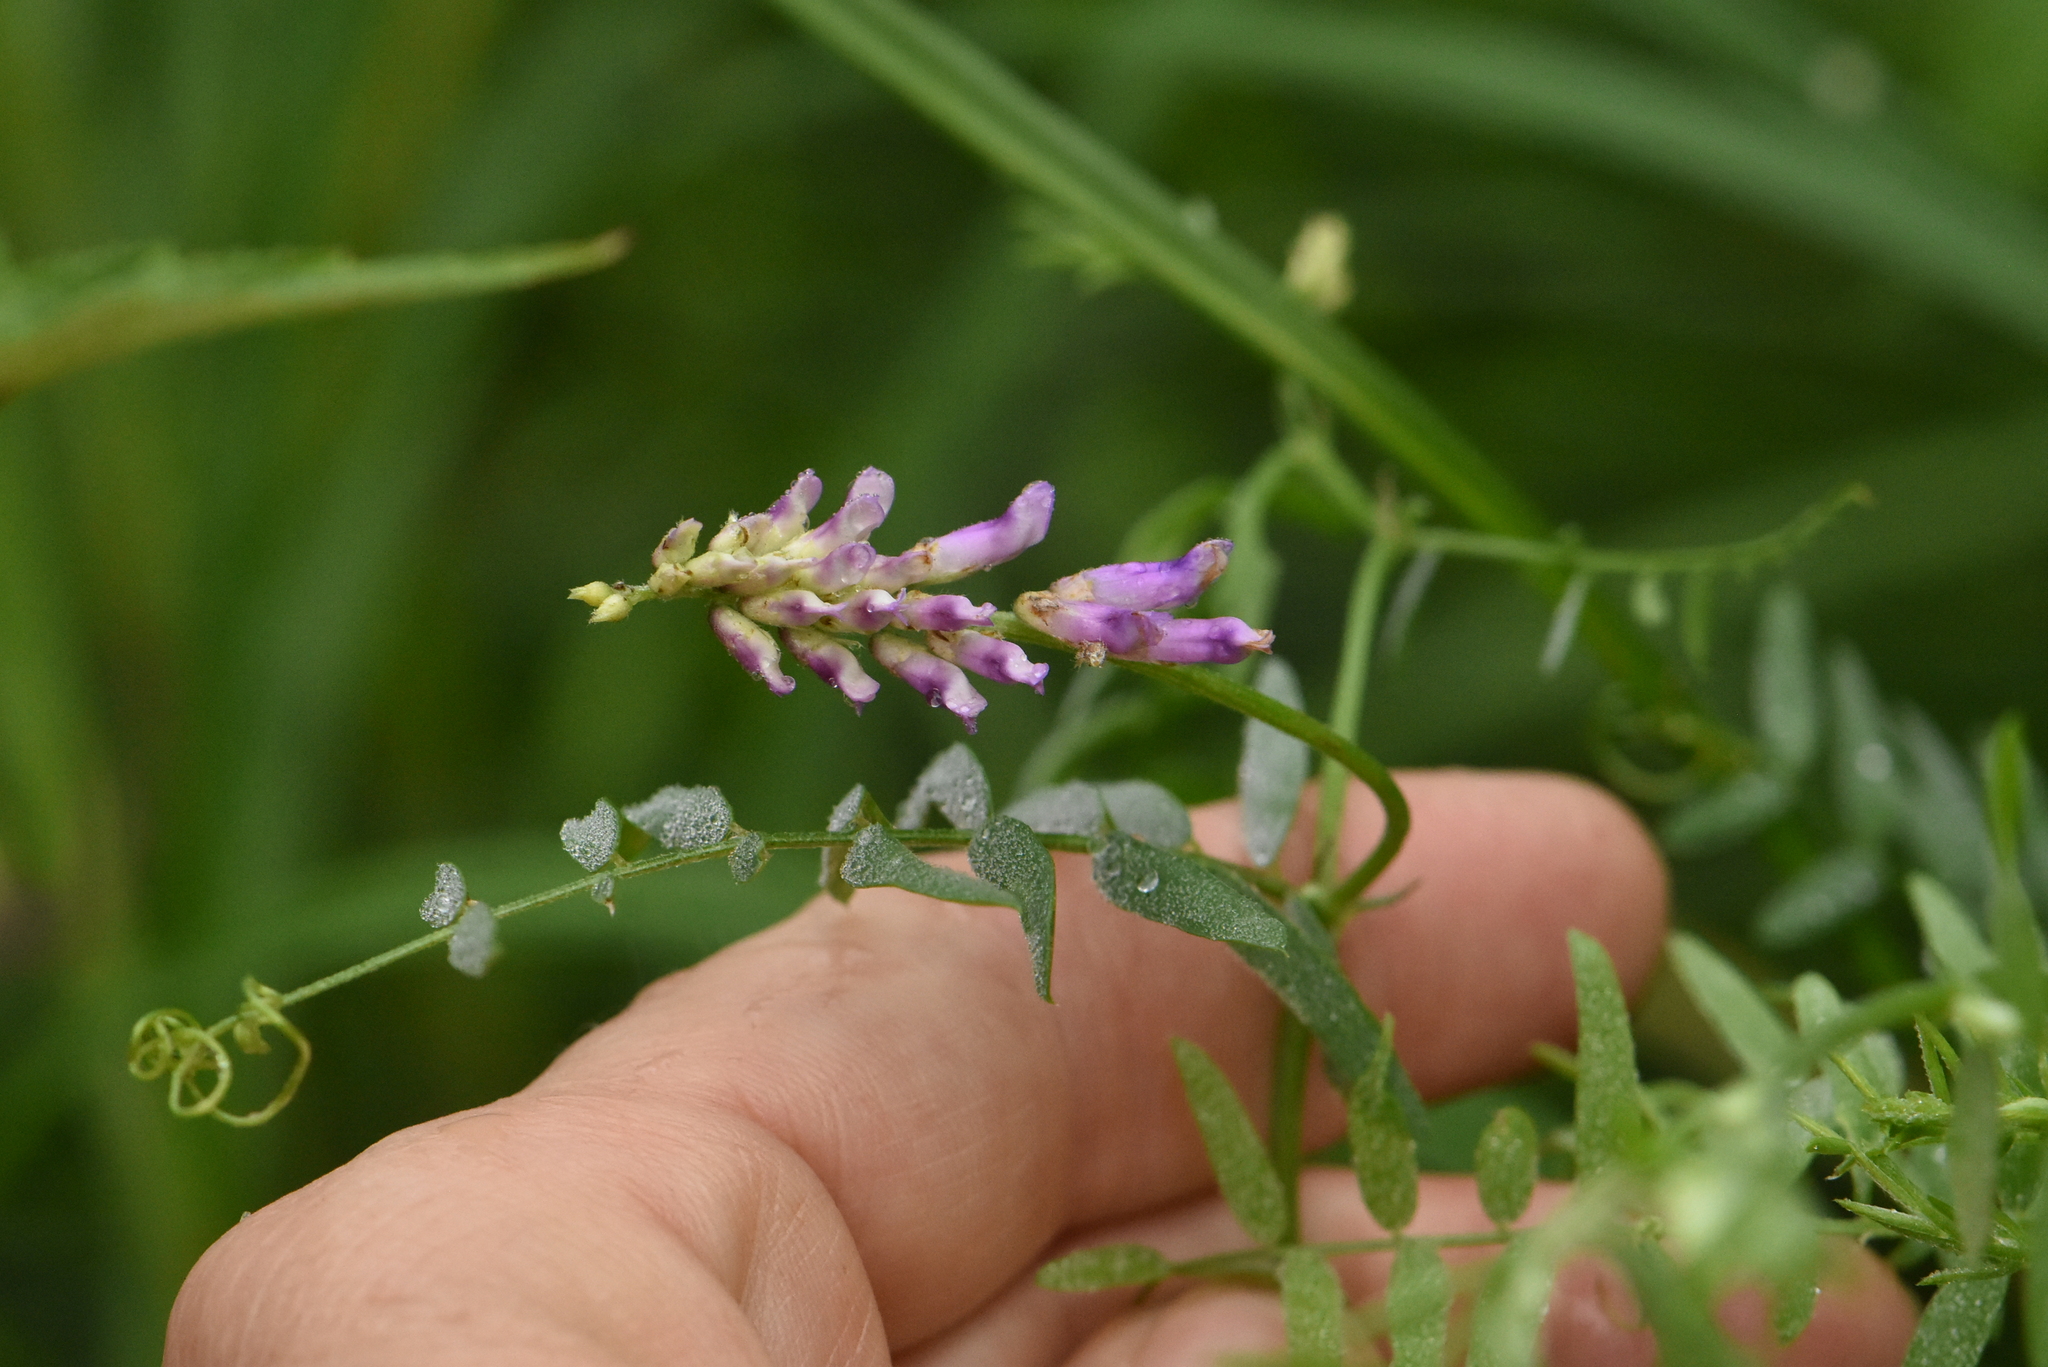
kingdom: Plantae
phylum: Tracheophyta
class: Magnoliopsida
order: Fabales
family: Fabaceae
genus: Vicia
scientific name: Vicia cracca
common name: Bird vetch
